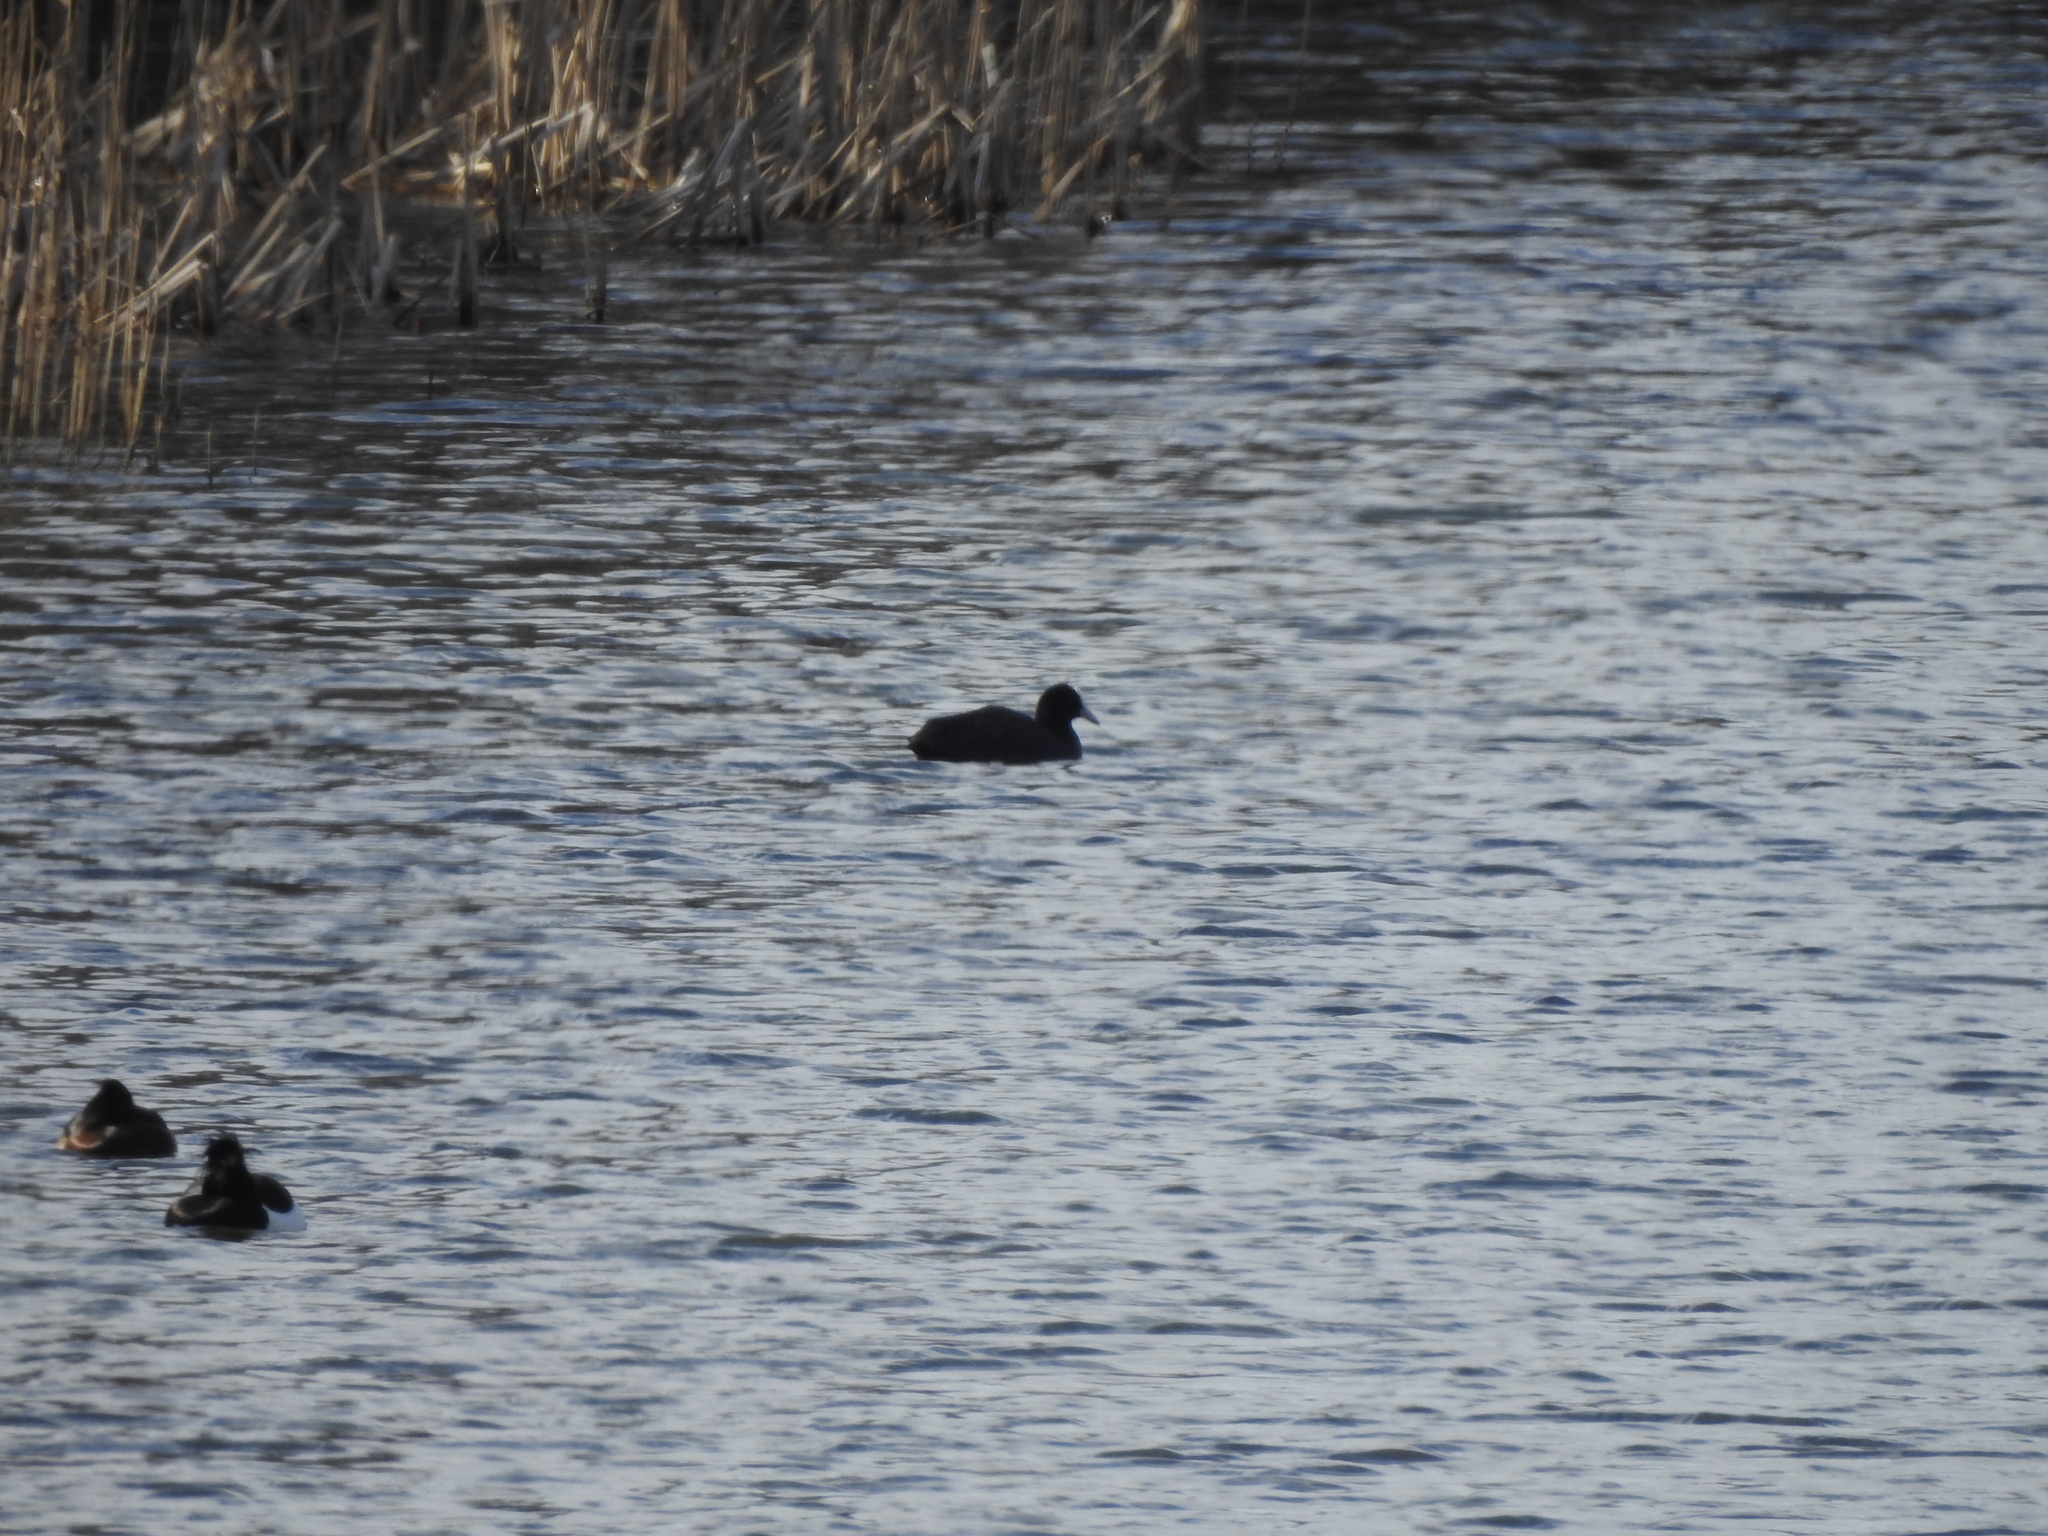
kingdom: Animalia
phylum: Chordata
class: Aves
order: Gruiformes
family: Rallidae
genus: Fulica
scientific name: Fulica atra
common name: Eurasian coot
